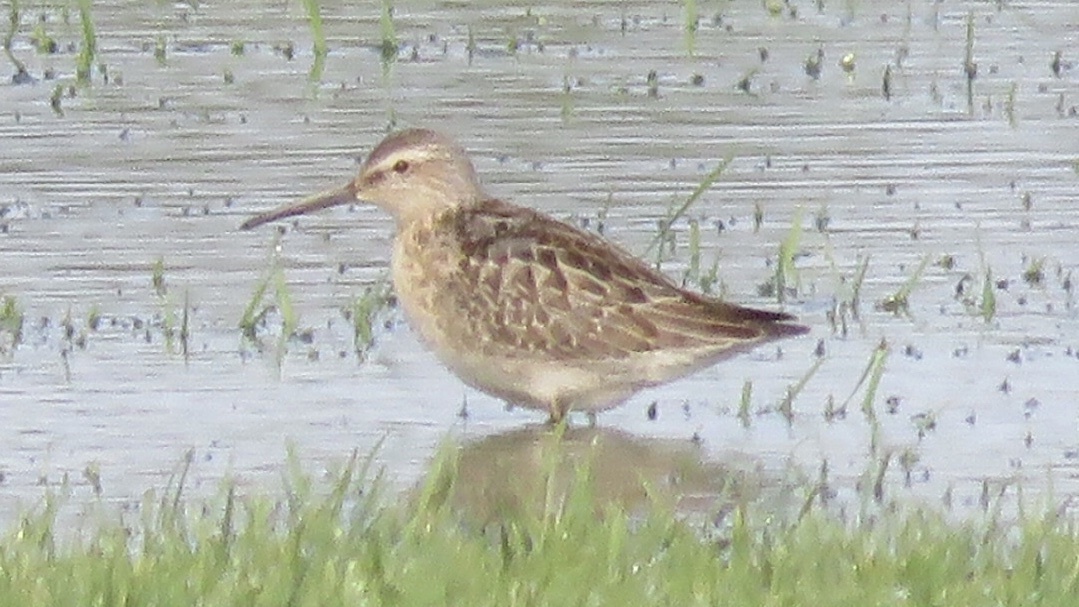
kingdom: Animalia
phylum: Chordata
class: Aves
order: Charadriiformes
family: Scolopacidae
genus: Calidris
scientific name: Calidris himantopus
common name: Stilt sandpiper
